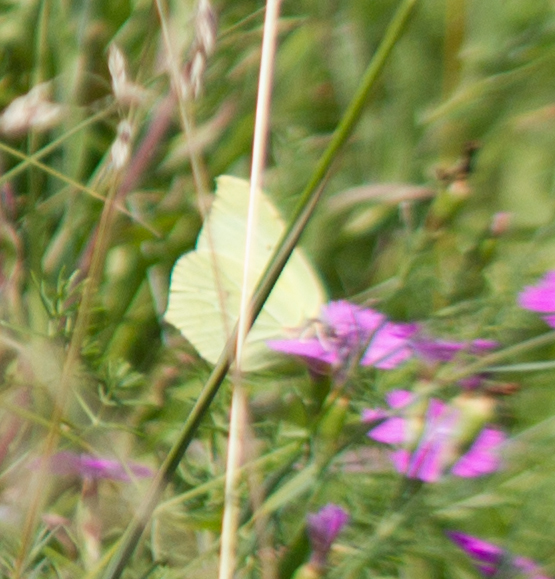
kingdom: Animalia
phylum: Arthropoda
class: Insecta
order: Lepidoptera
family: Pieridae
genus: Gonepteryx
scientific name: Gonepteryx rhamni
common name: Brimstone
